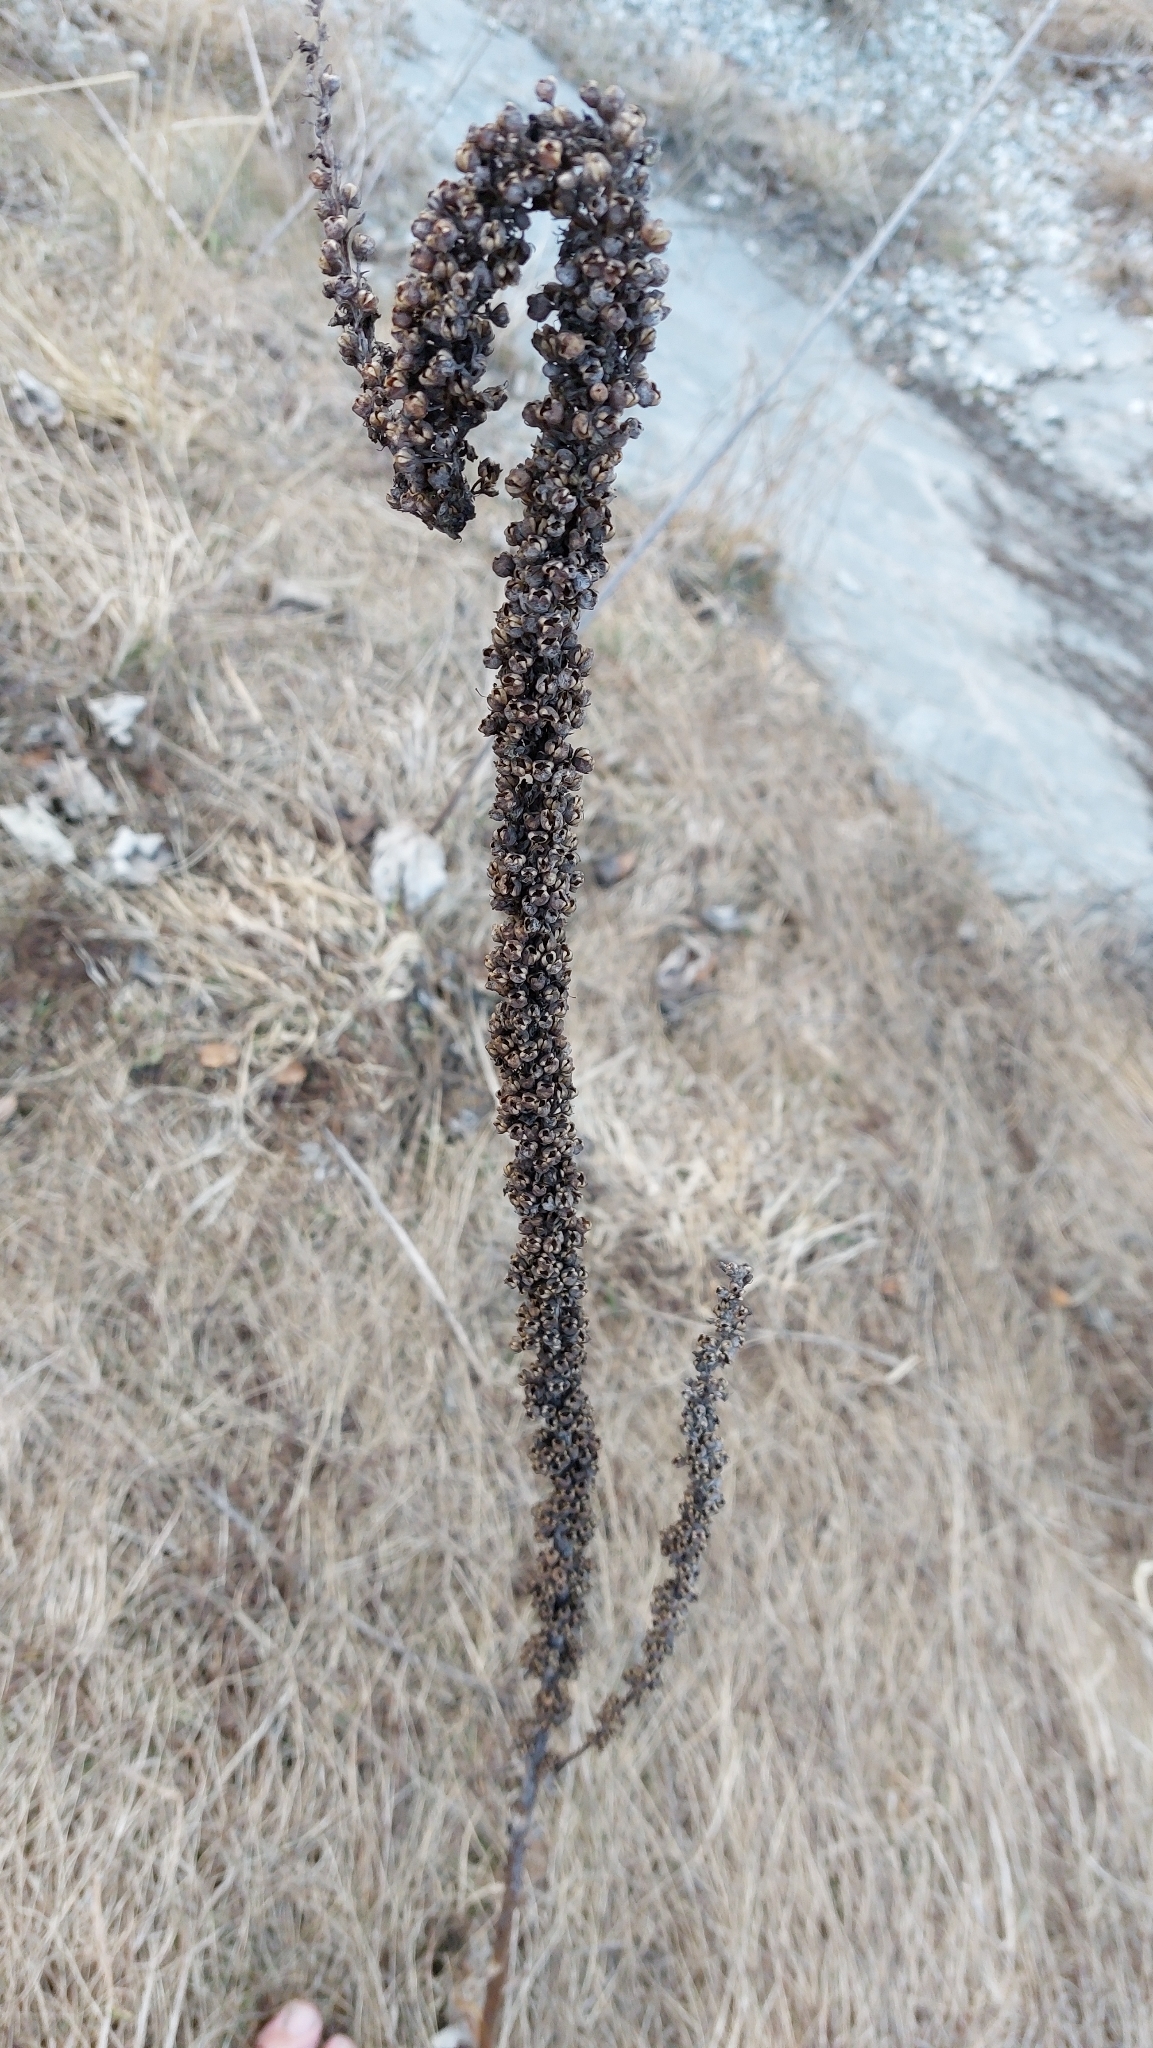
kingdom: Plantae
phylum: Tracheophyta
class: Magnoliopsida
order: Lamiales
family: Scrophulariaceae
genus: Verbascum
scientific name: Verbascum
